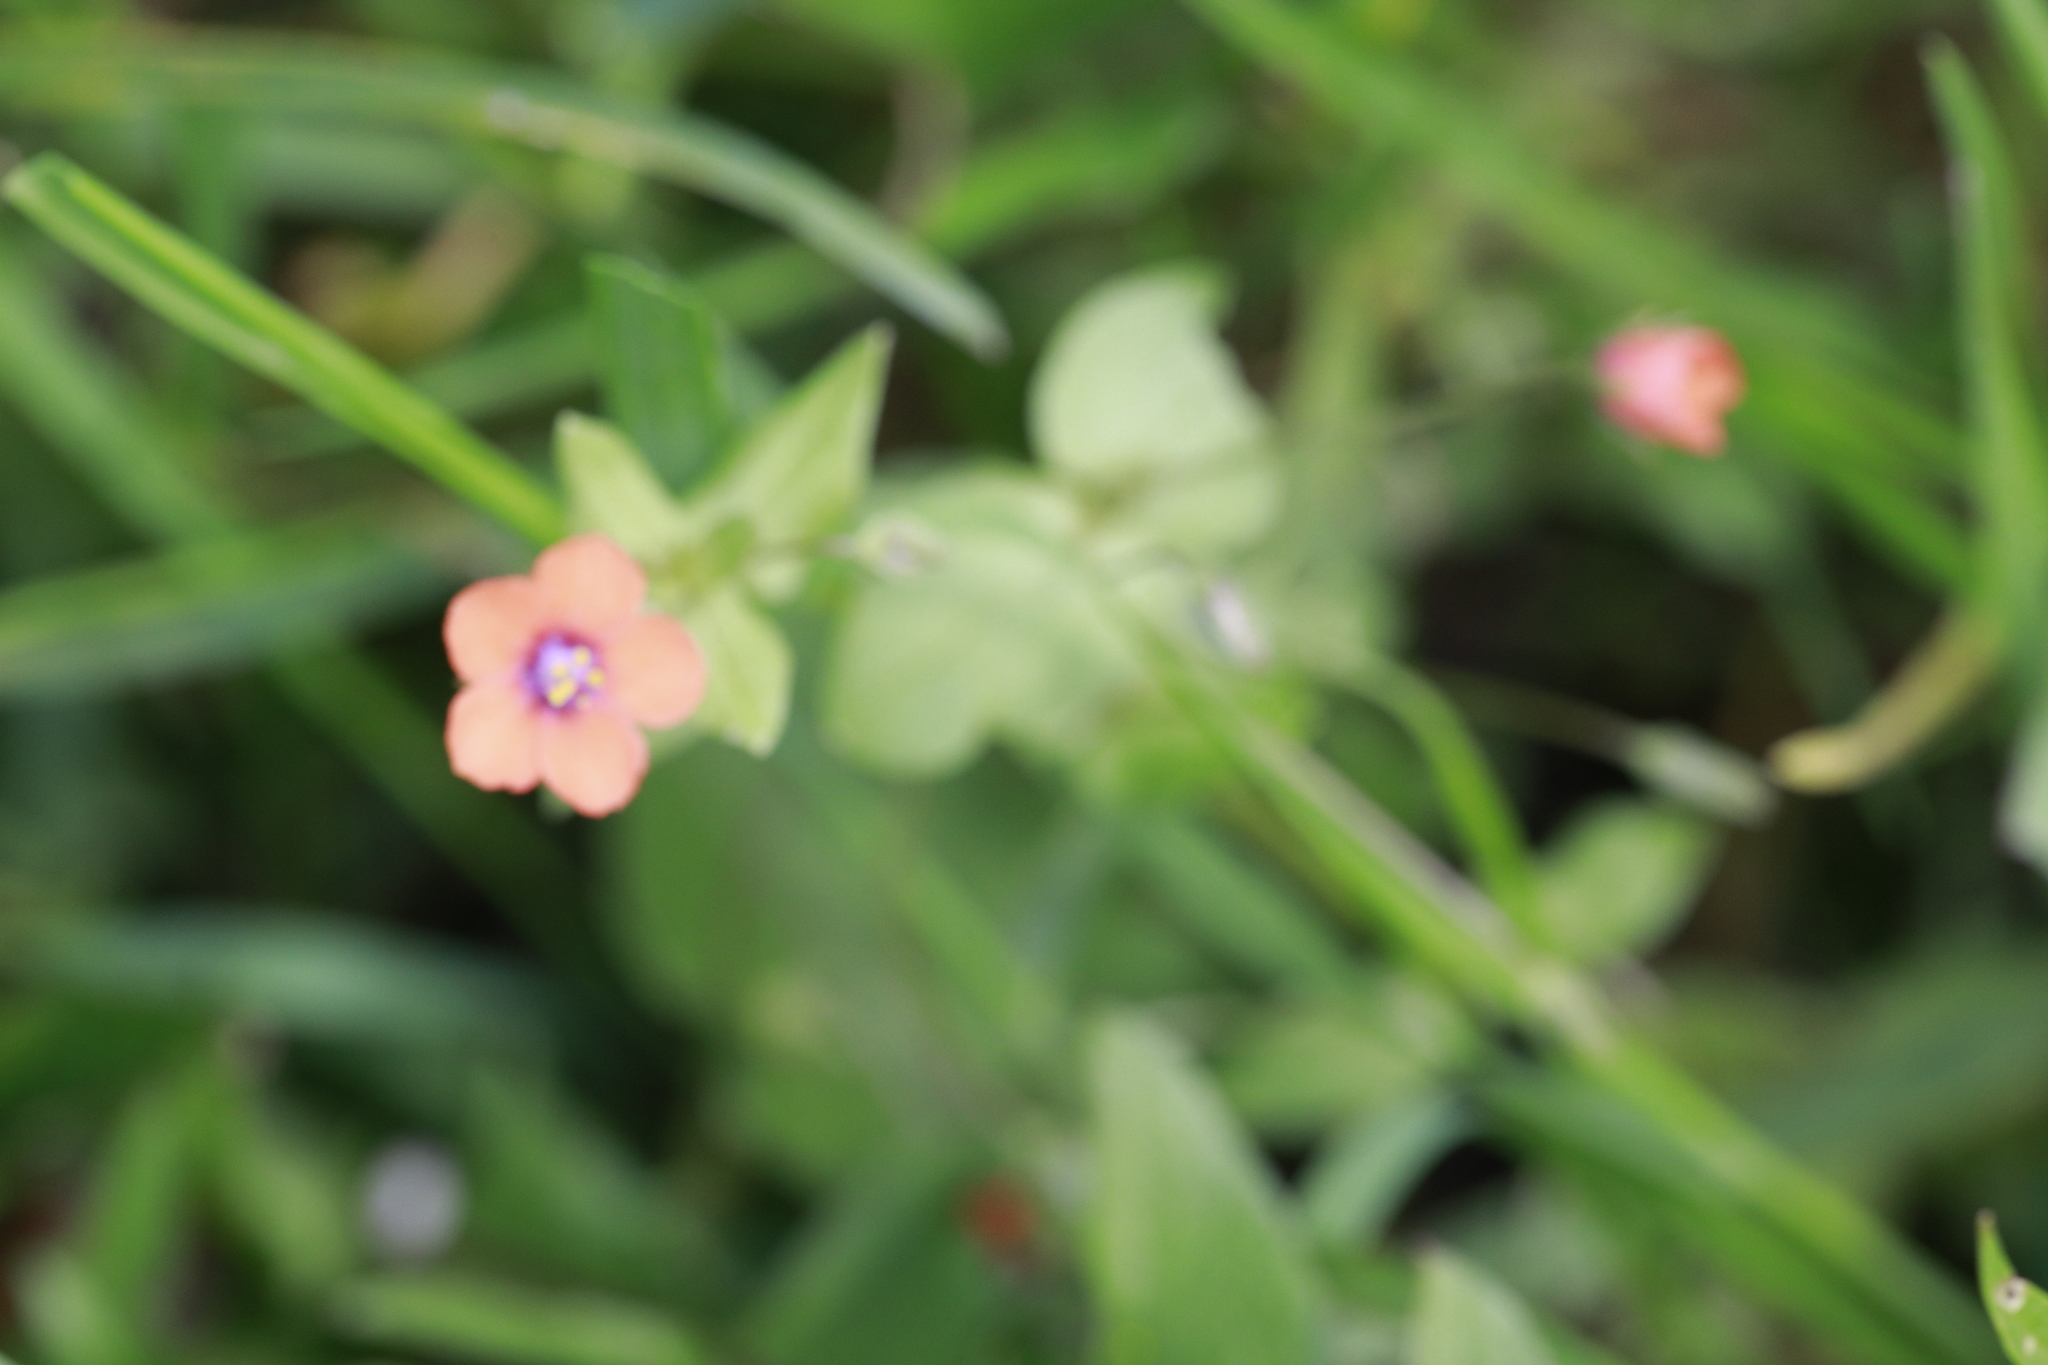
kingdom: Plantae
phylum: Tracheophyta
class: Magnoliopsida
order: Ericales
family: Primulaceae
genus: Lysimachia
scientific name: Lysimachia arvensis
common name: Scarlet pimpernel
